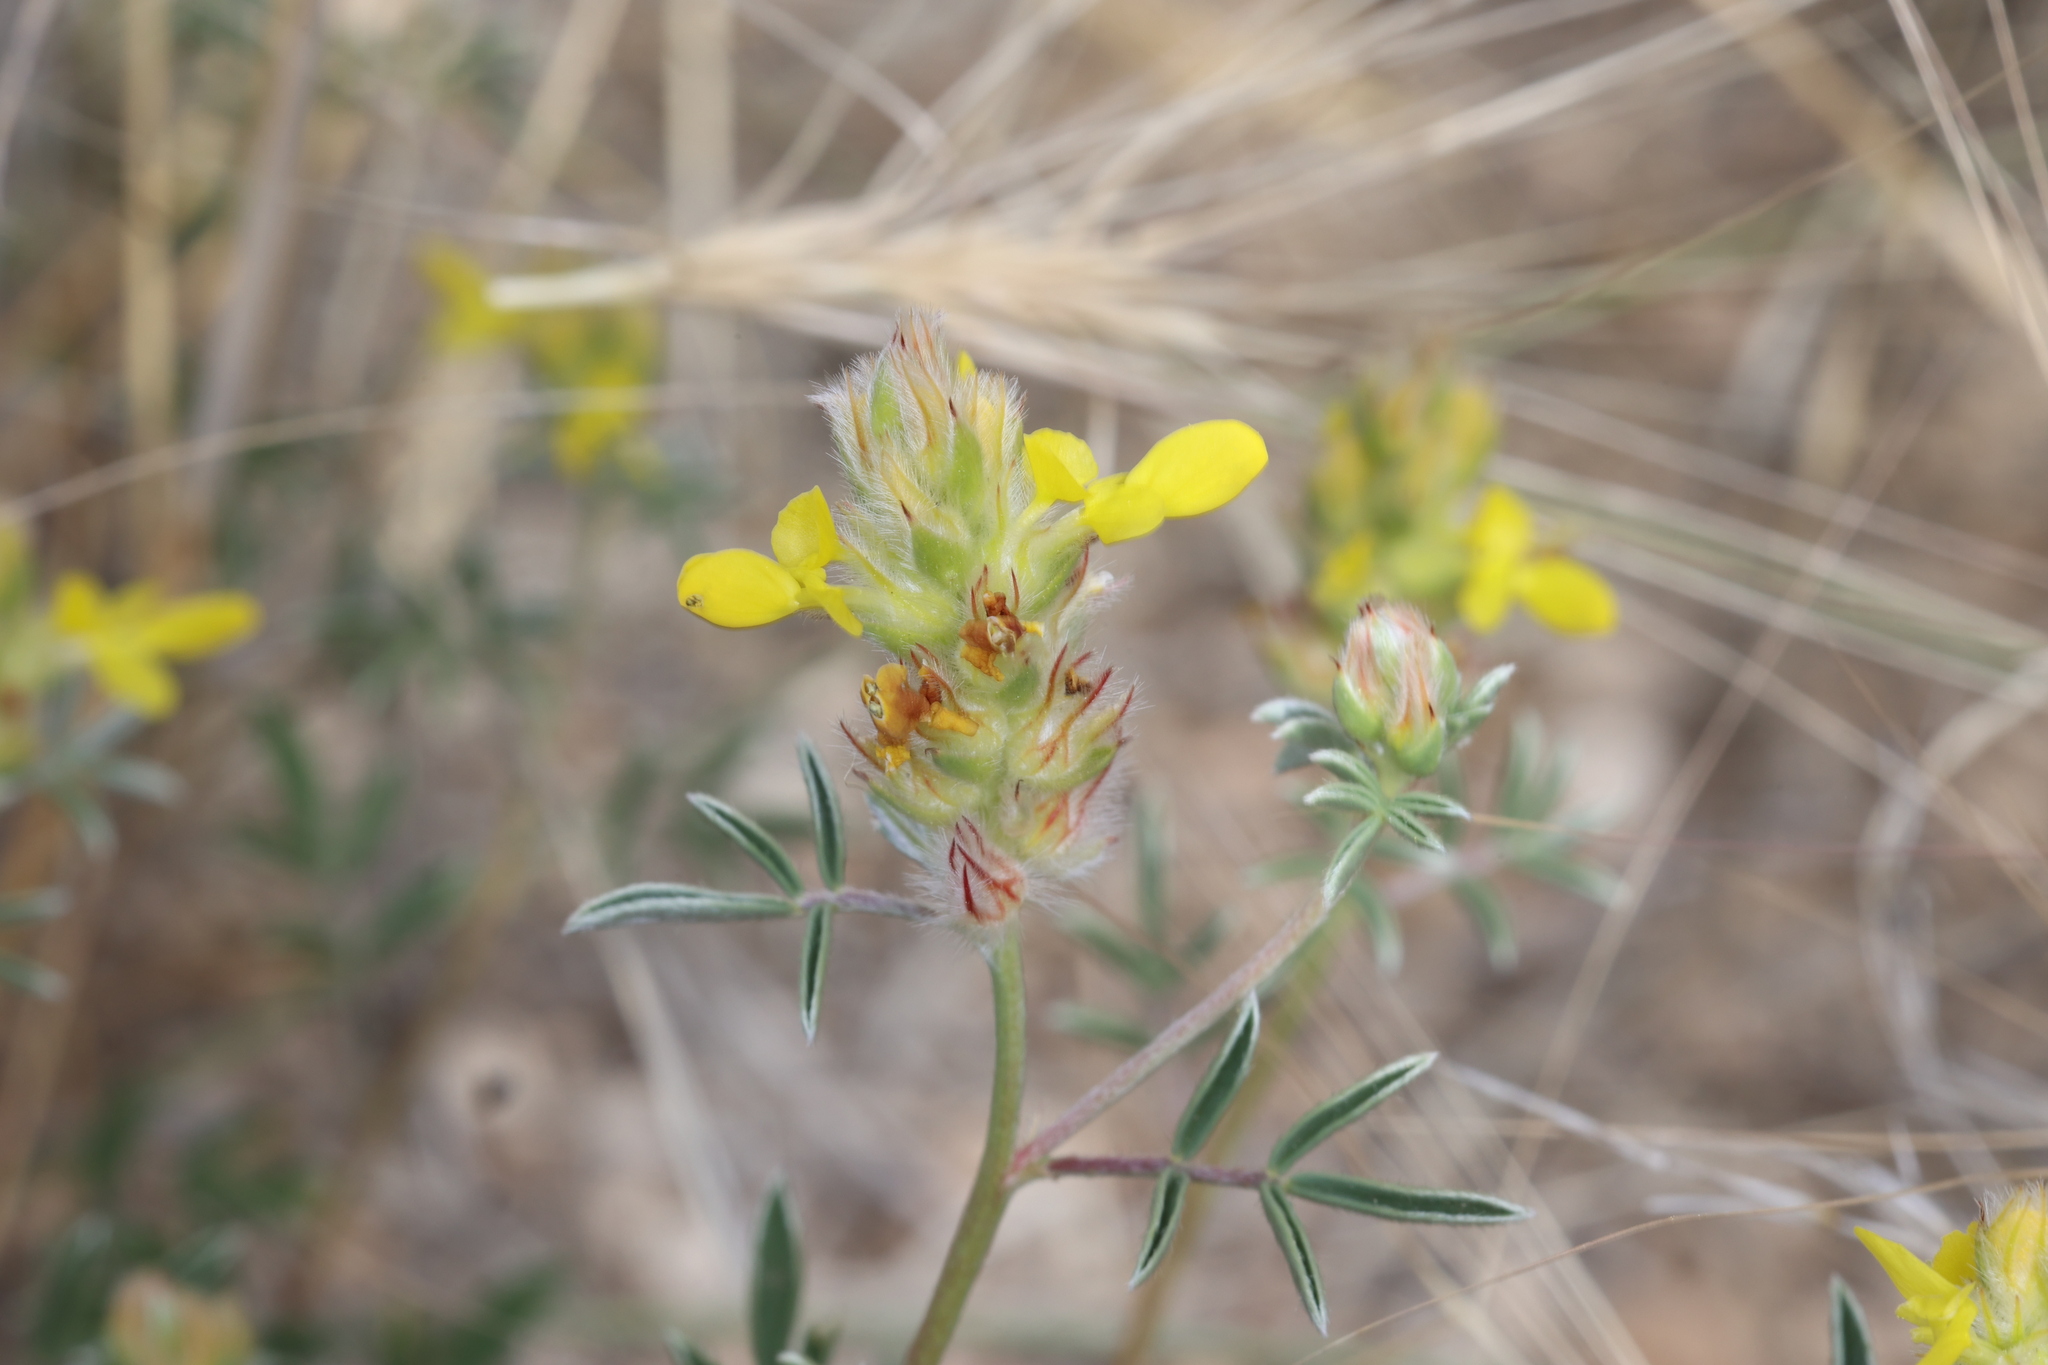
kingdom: Plantae
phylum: Tracheophyta
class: Magnoliopsida
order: Fabales
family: Fabaceae
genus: Dalea
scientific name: Dalea nana
